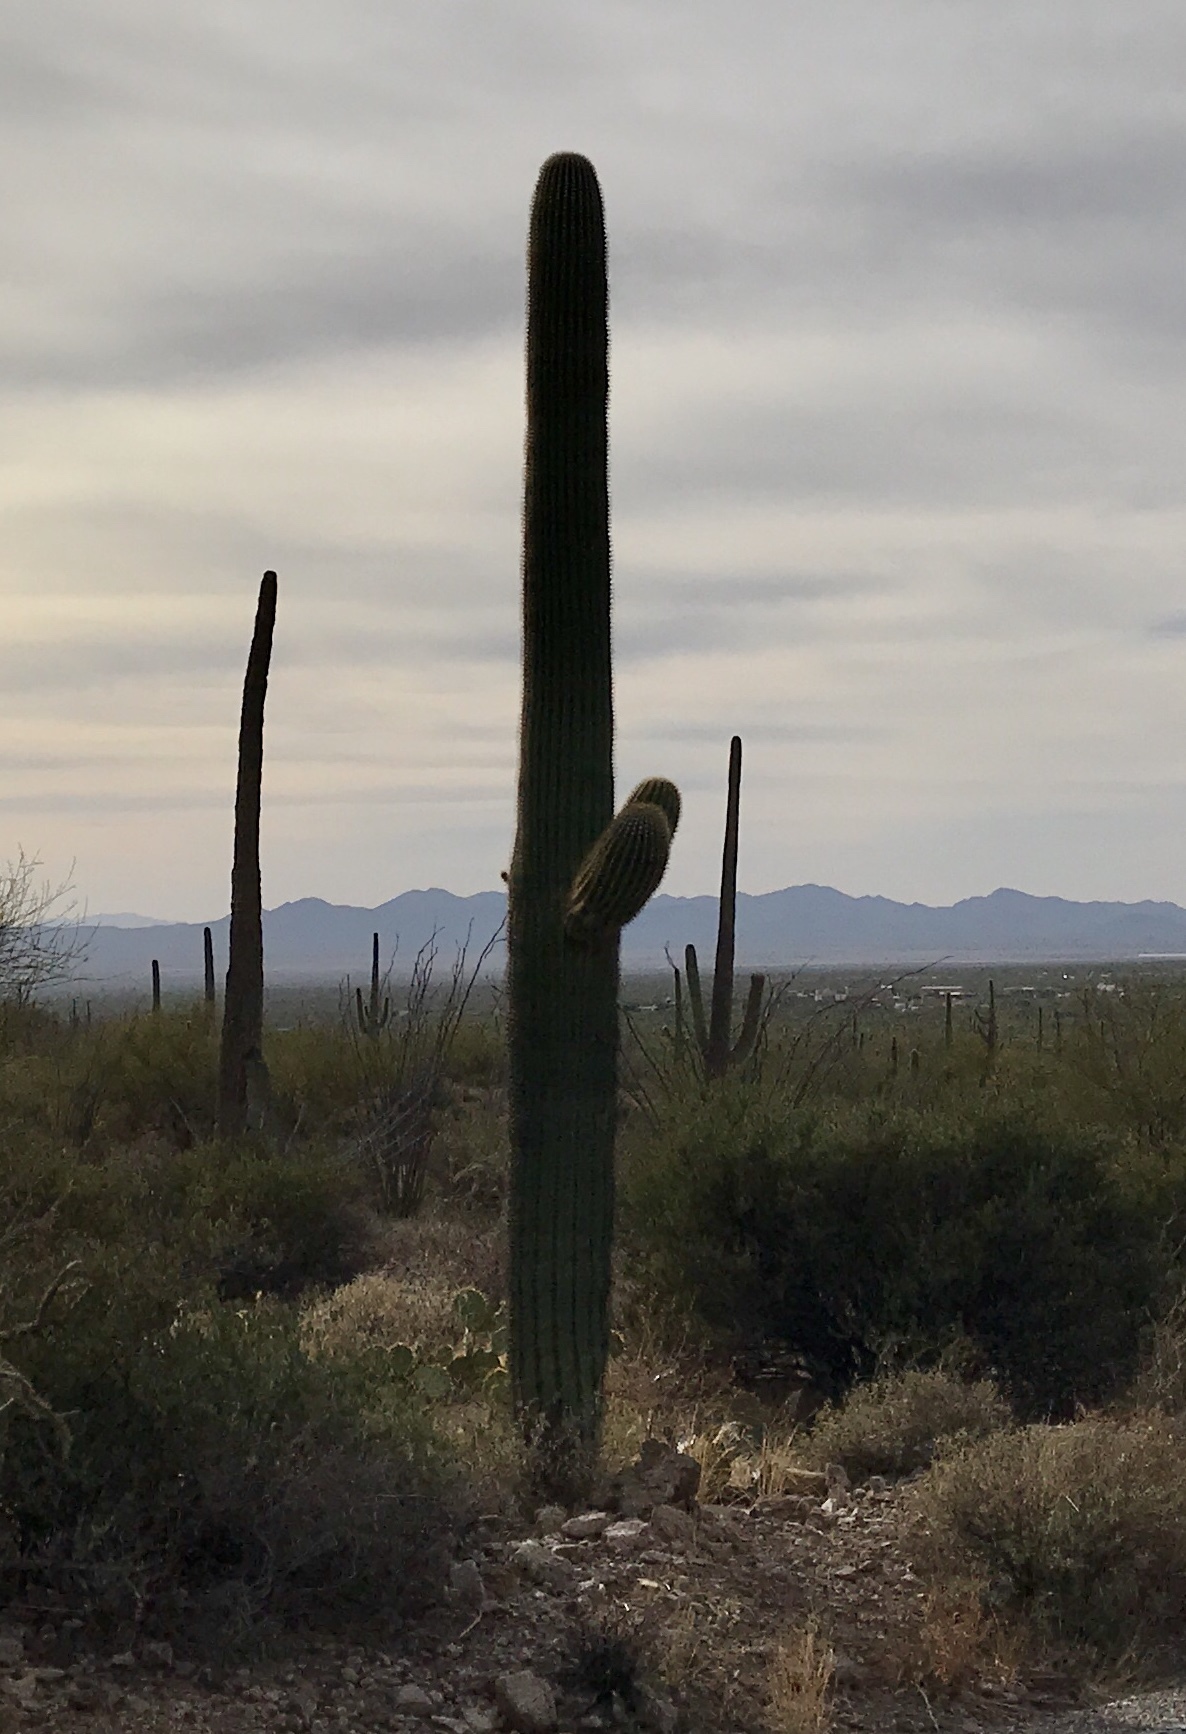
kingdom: Plantae
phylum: Tracheophyta
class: Magnoliopsida
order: Caryophyllales
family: Cactaceae
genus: Carnegiea
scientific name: Carnegiea gigantea
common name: Saguaro
